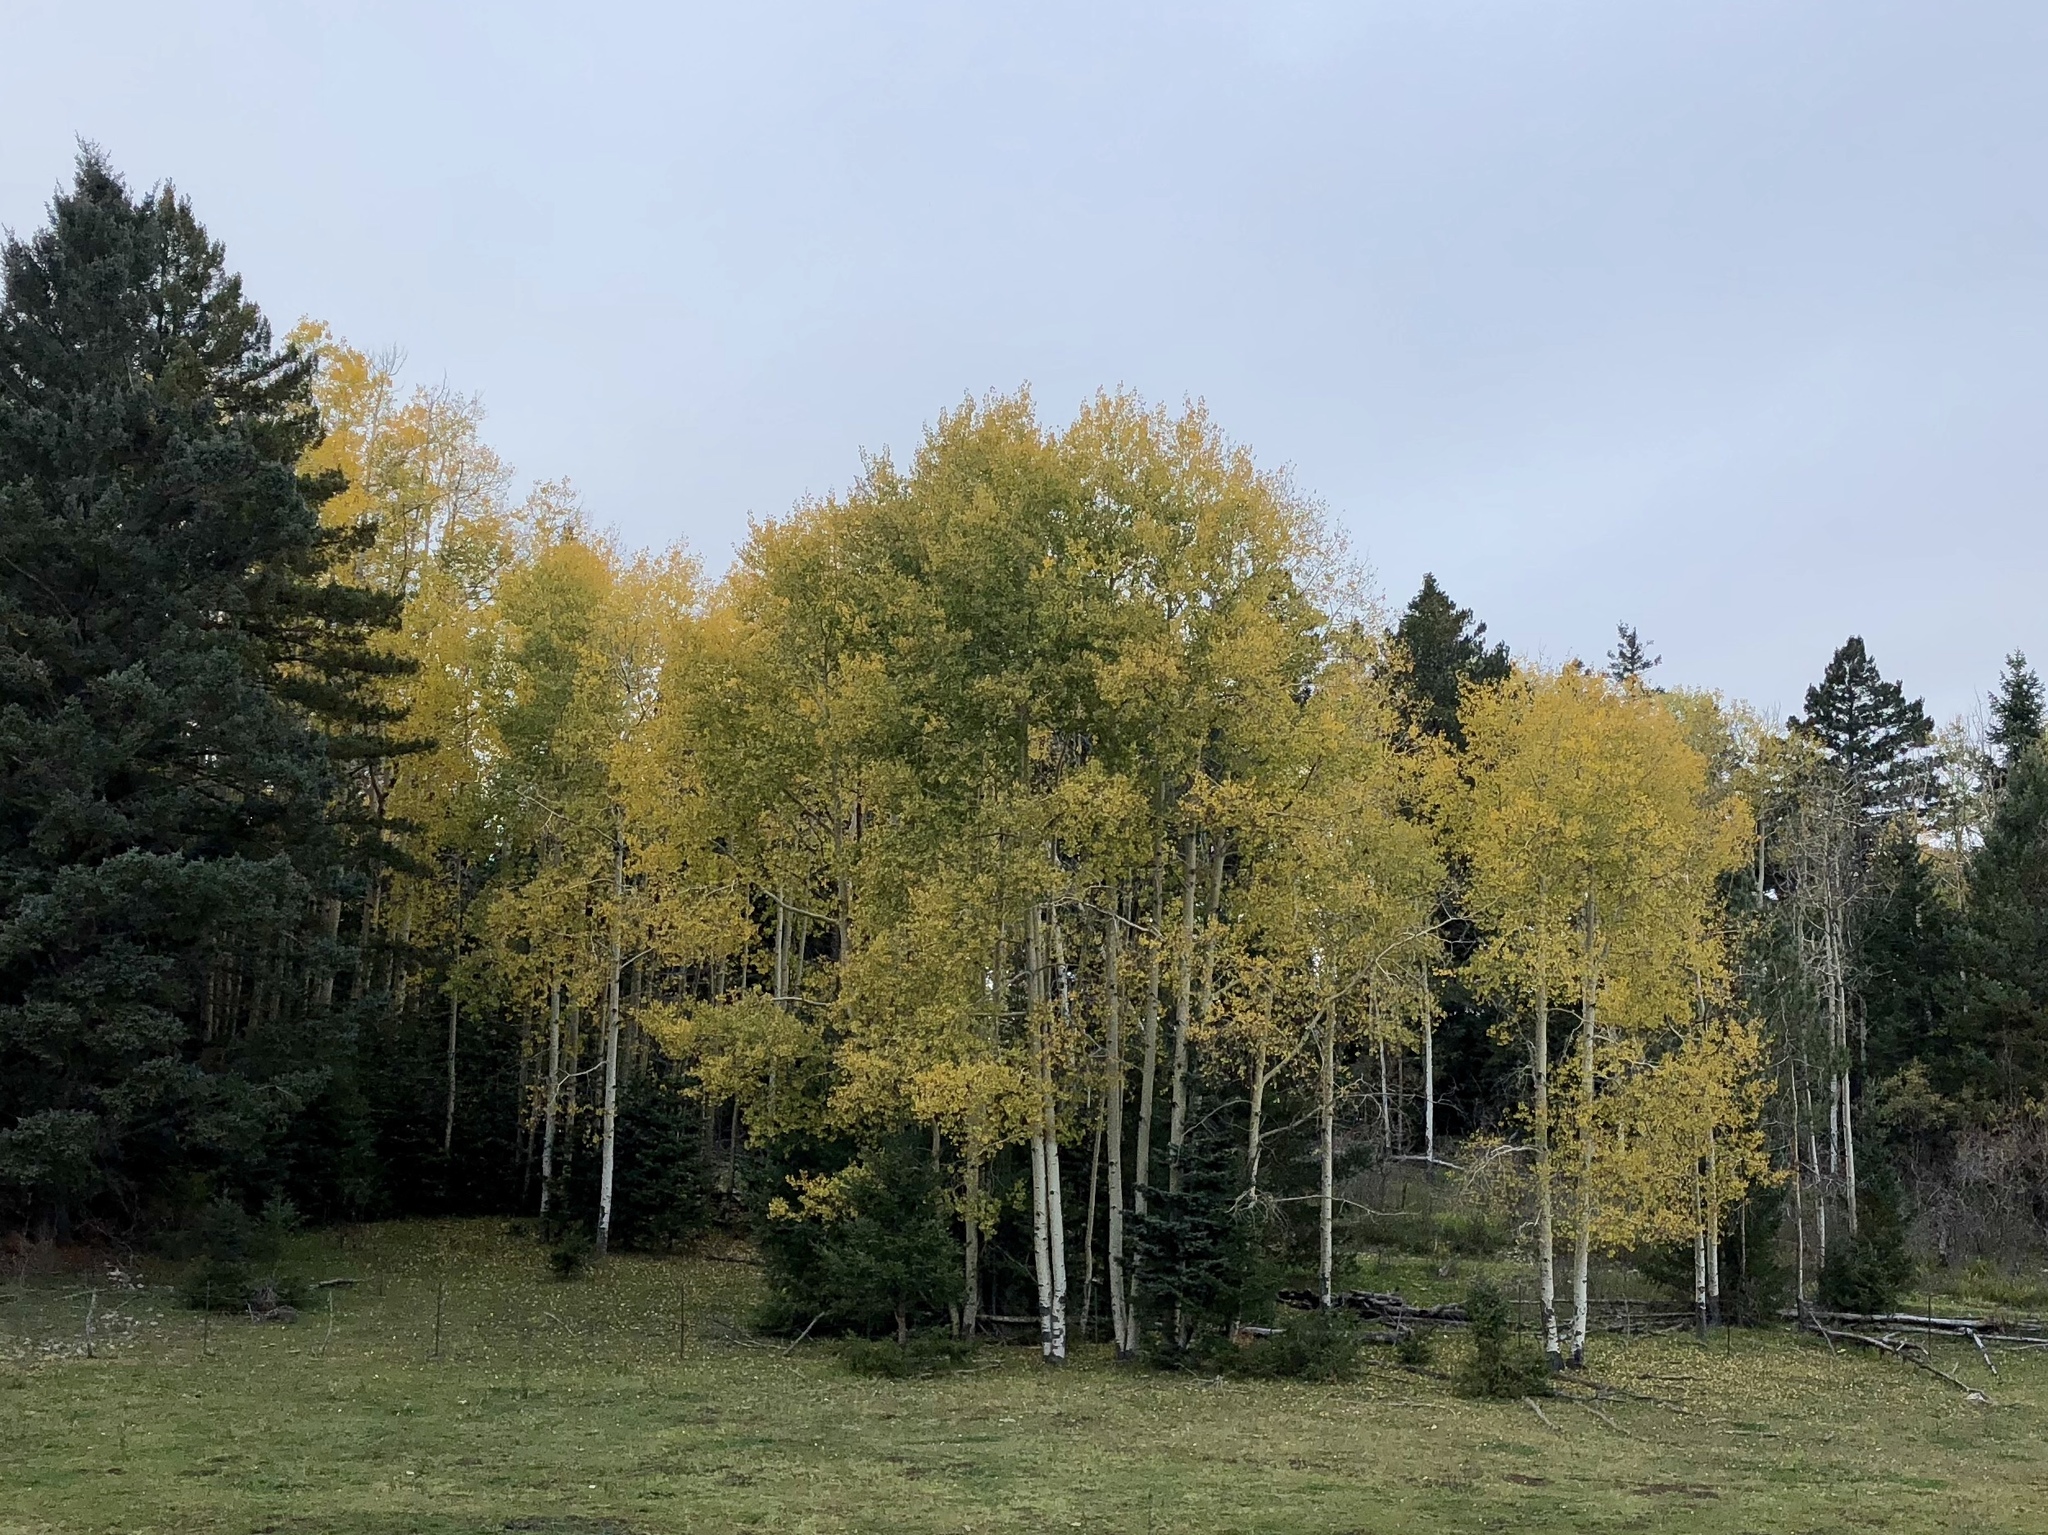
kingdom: Plantae
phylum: Tracheophyta
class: Magnoliopsida
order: Malpighiales
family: Salicaceae
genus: Populus
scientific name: Populus tremuloides
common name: Quaking aspen
